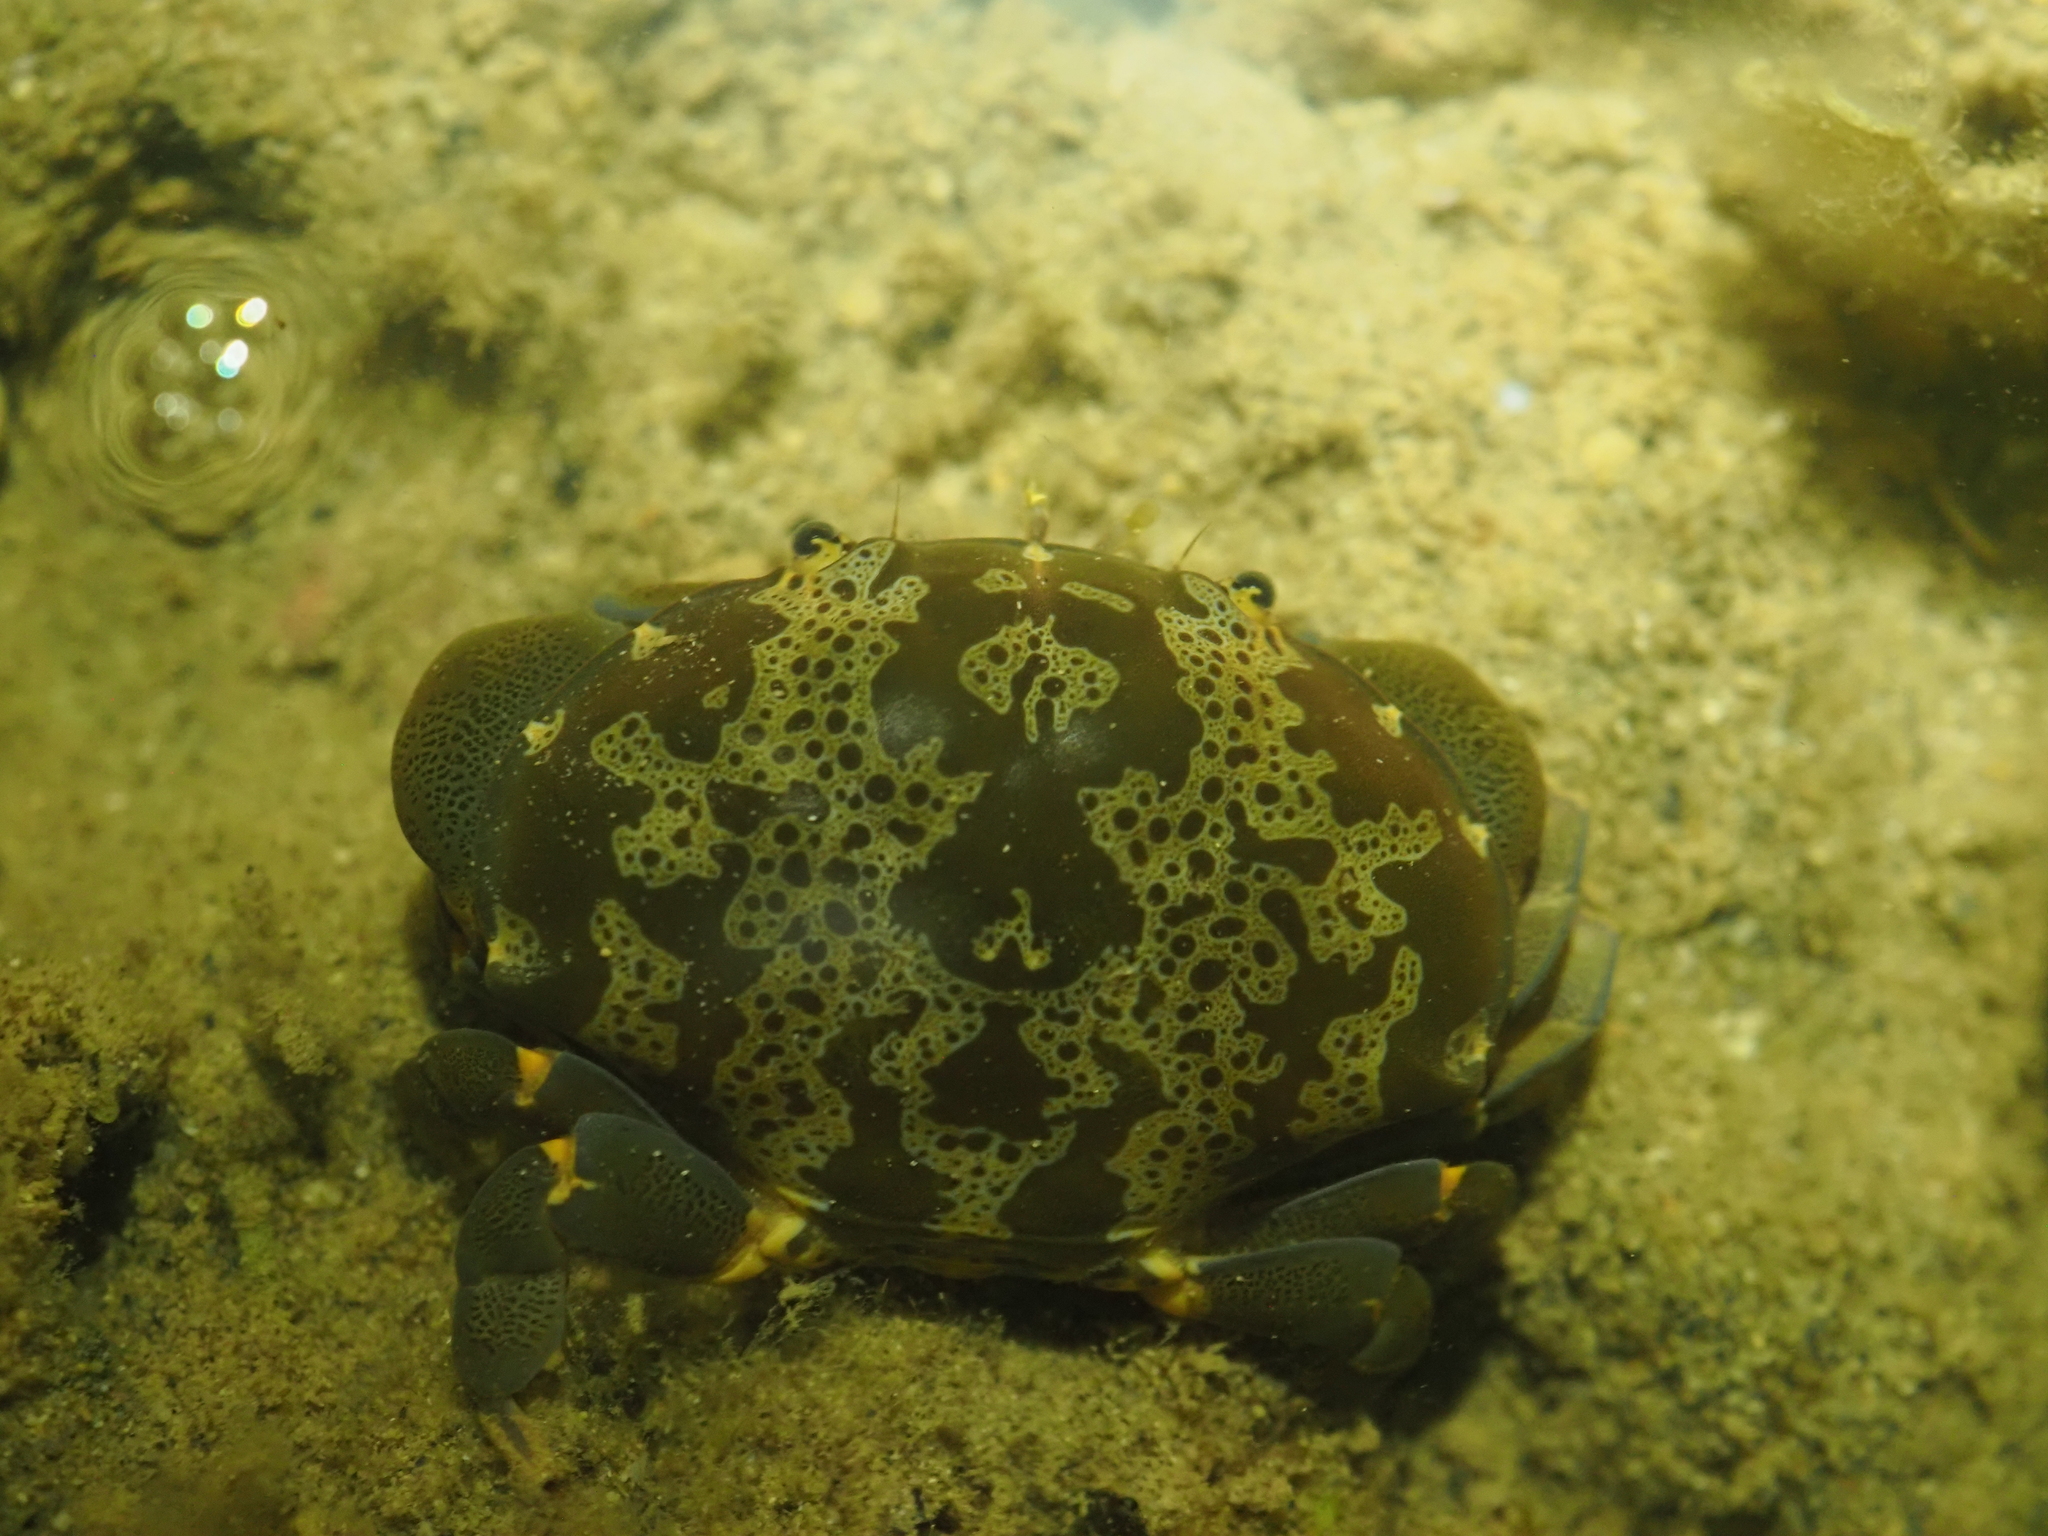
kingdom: Animalia
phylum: Arthropoda
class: Malacostraca
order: Decapoda
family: Xanthidae
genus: Atergatis
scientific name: Atergatis floridus
